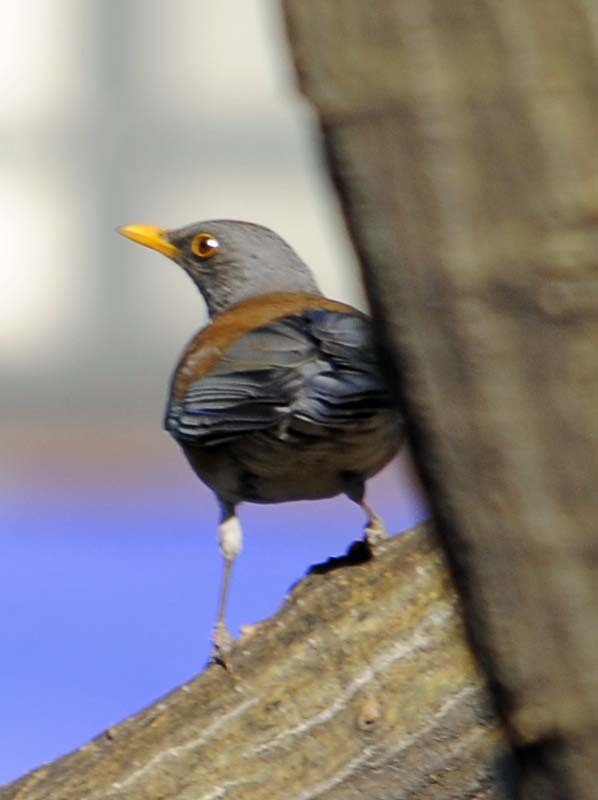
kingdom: Animalia
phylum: Chordata
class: Aves
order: Passeriformes
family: Turdidae
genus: Turdus
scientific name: Turdus rufopalliatus
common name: Rufous-backed robin
